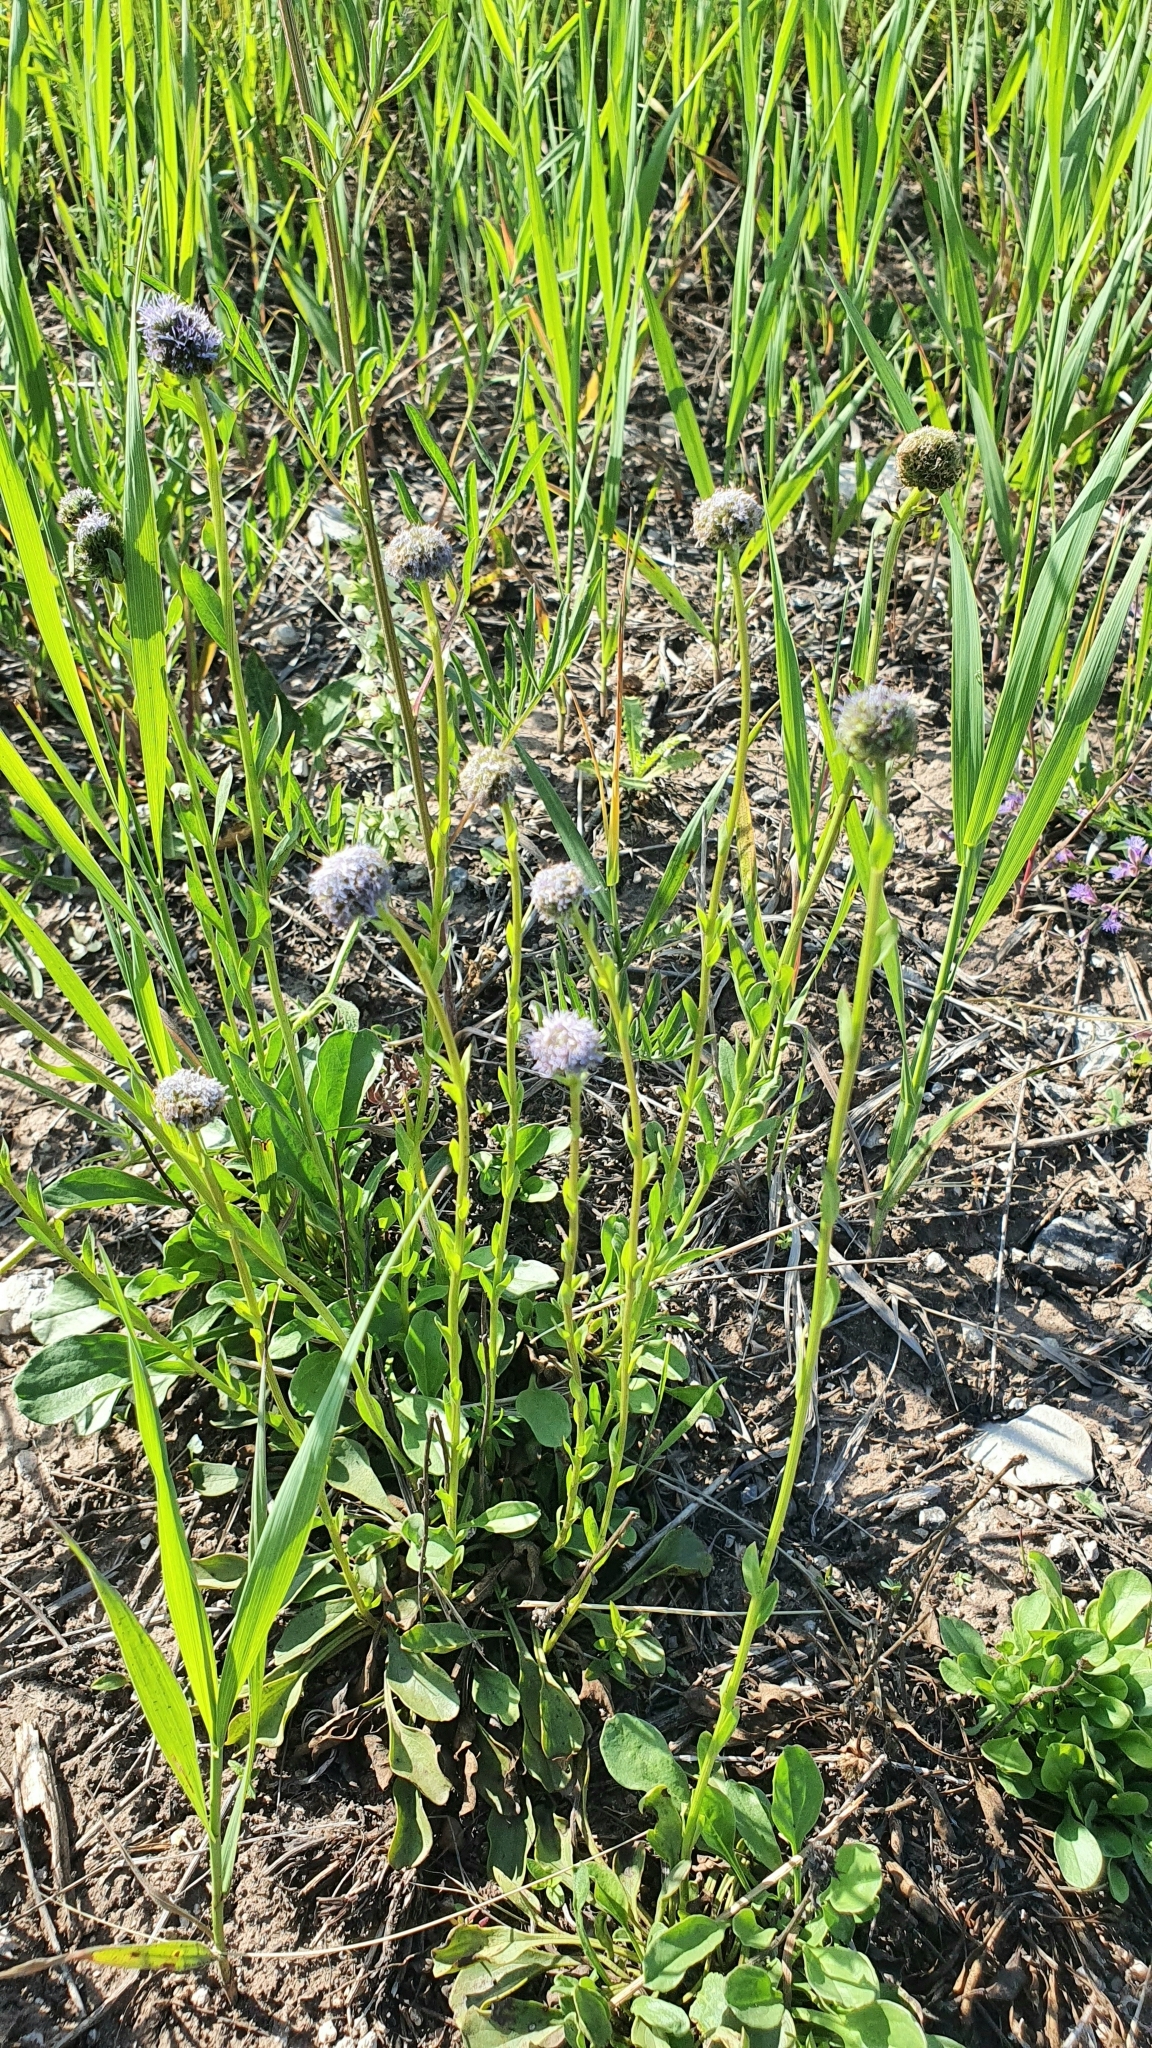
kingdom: Plantae
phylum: Tracheophyta
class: Magnoliopsida
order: Lamiales
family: Plantaginaceae
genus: Globularia
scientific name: Globularia bisnagarica
